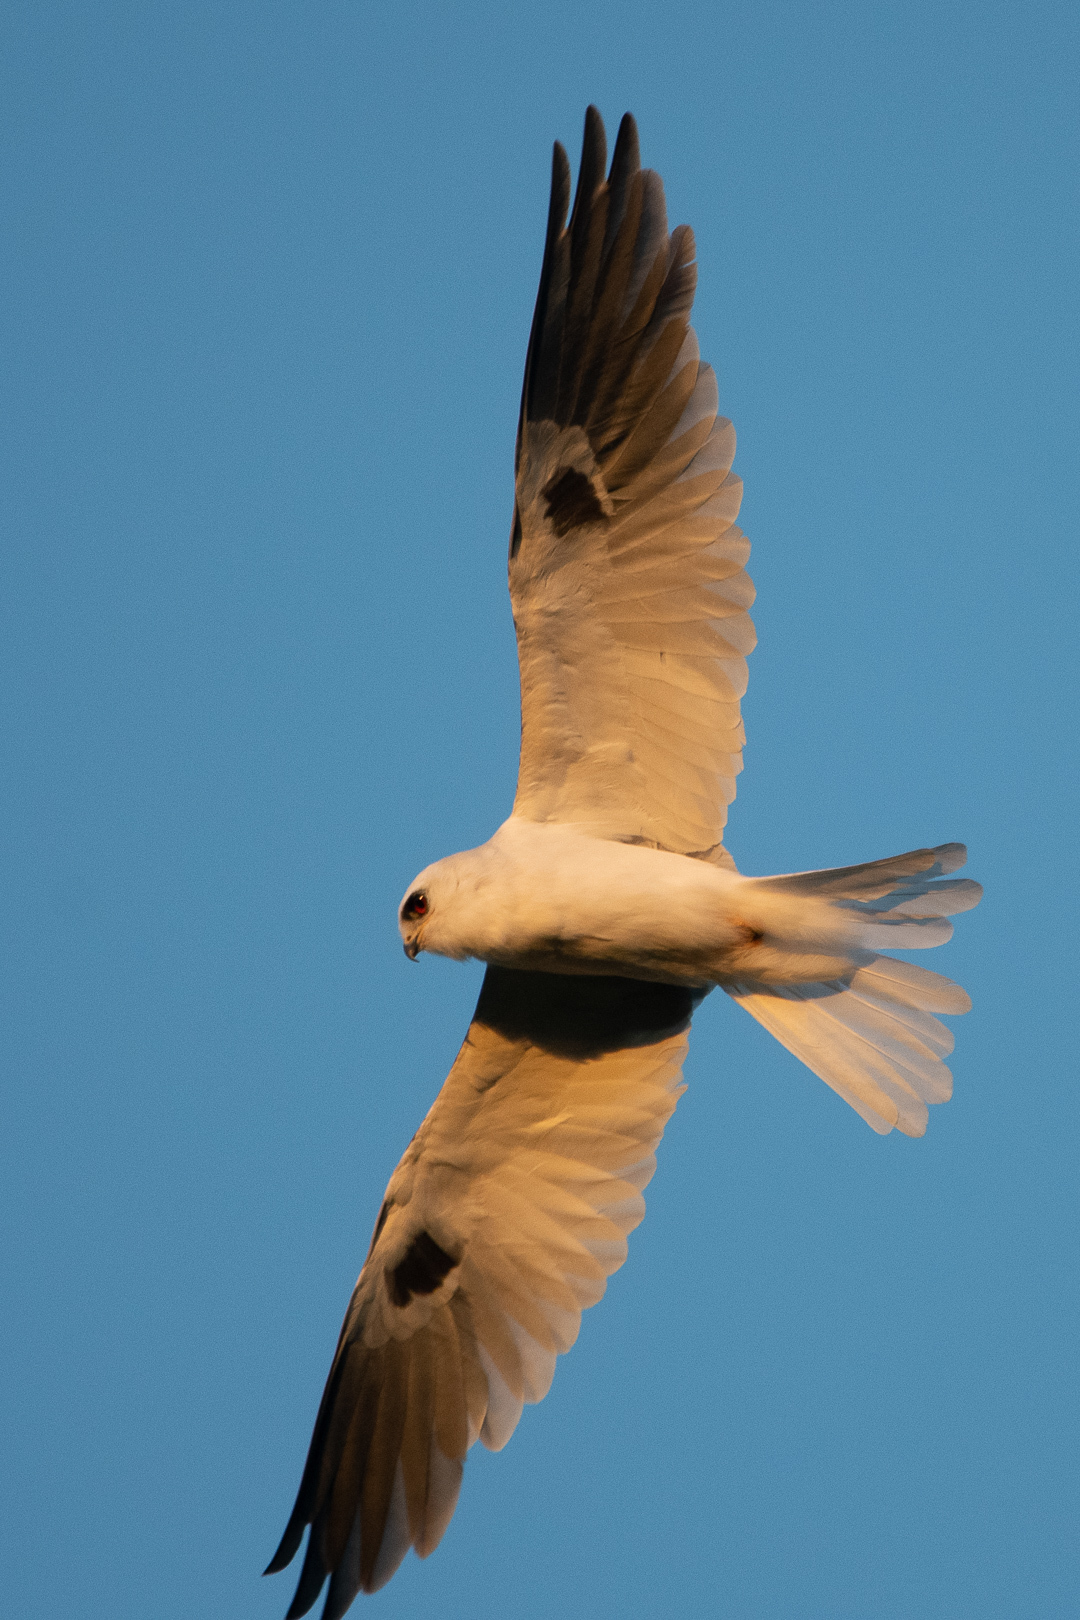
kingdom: Animalia
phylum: Chordata
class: Aves
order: Accipitriformes
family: Accipitridae
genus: Elanus
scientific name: Elanus leucurus
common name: White-tailed kite
